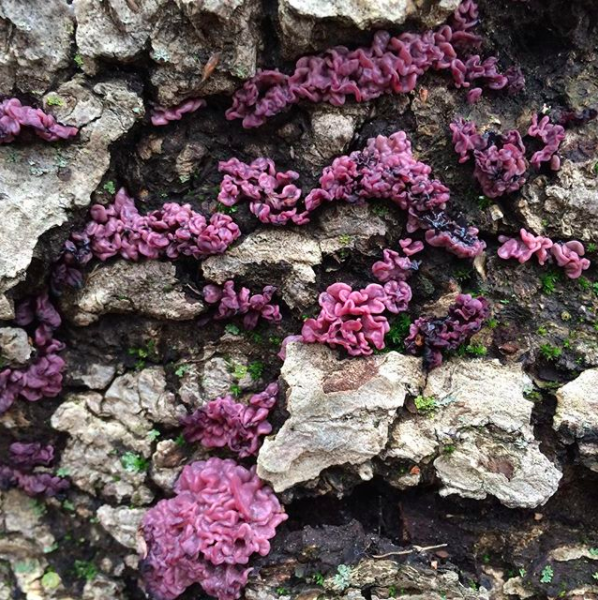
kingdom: Fungi
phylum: Ascomycota
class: Leotiomycetes
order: Helotiales
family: Gelatinodiscaceae
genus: Ascocoryne
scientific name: Ascocoryne sarcoides
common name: Purple jellydisc
